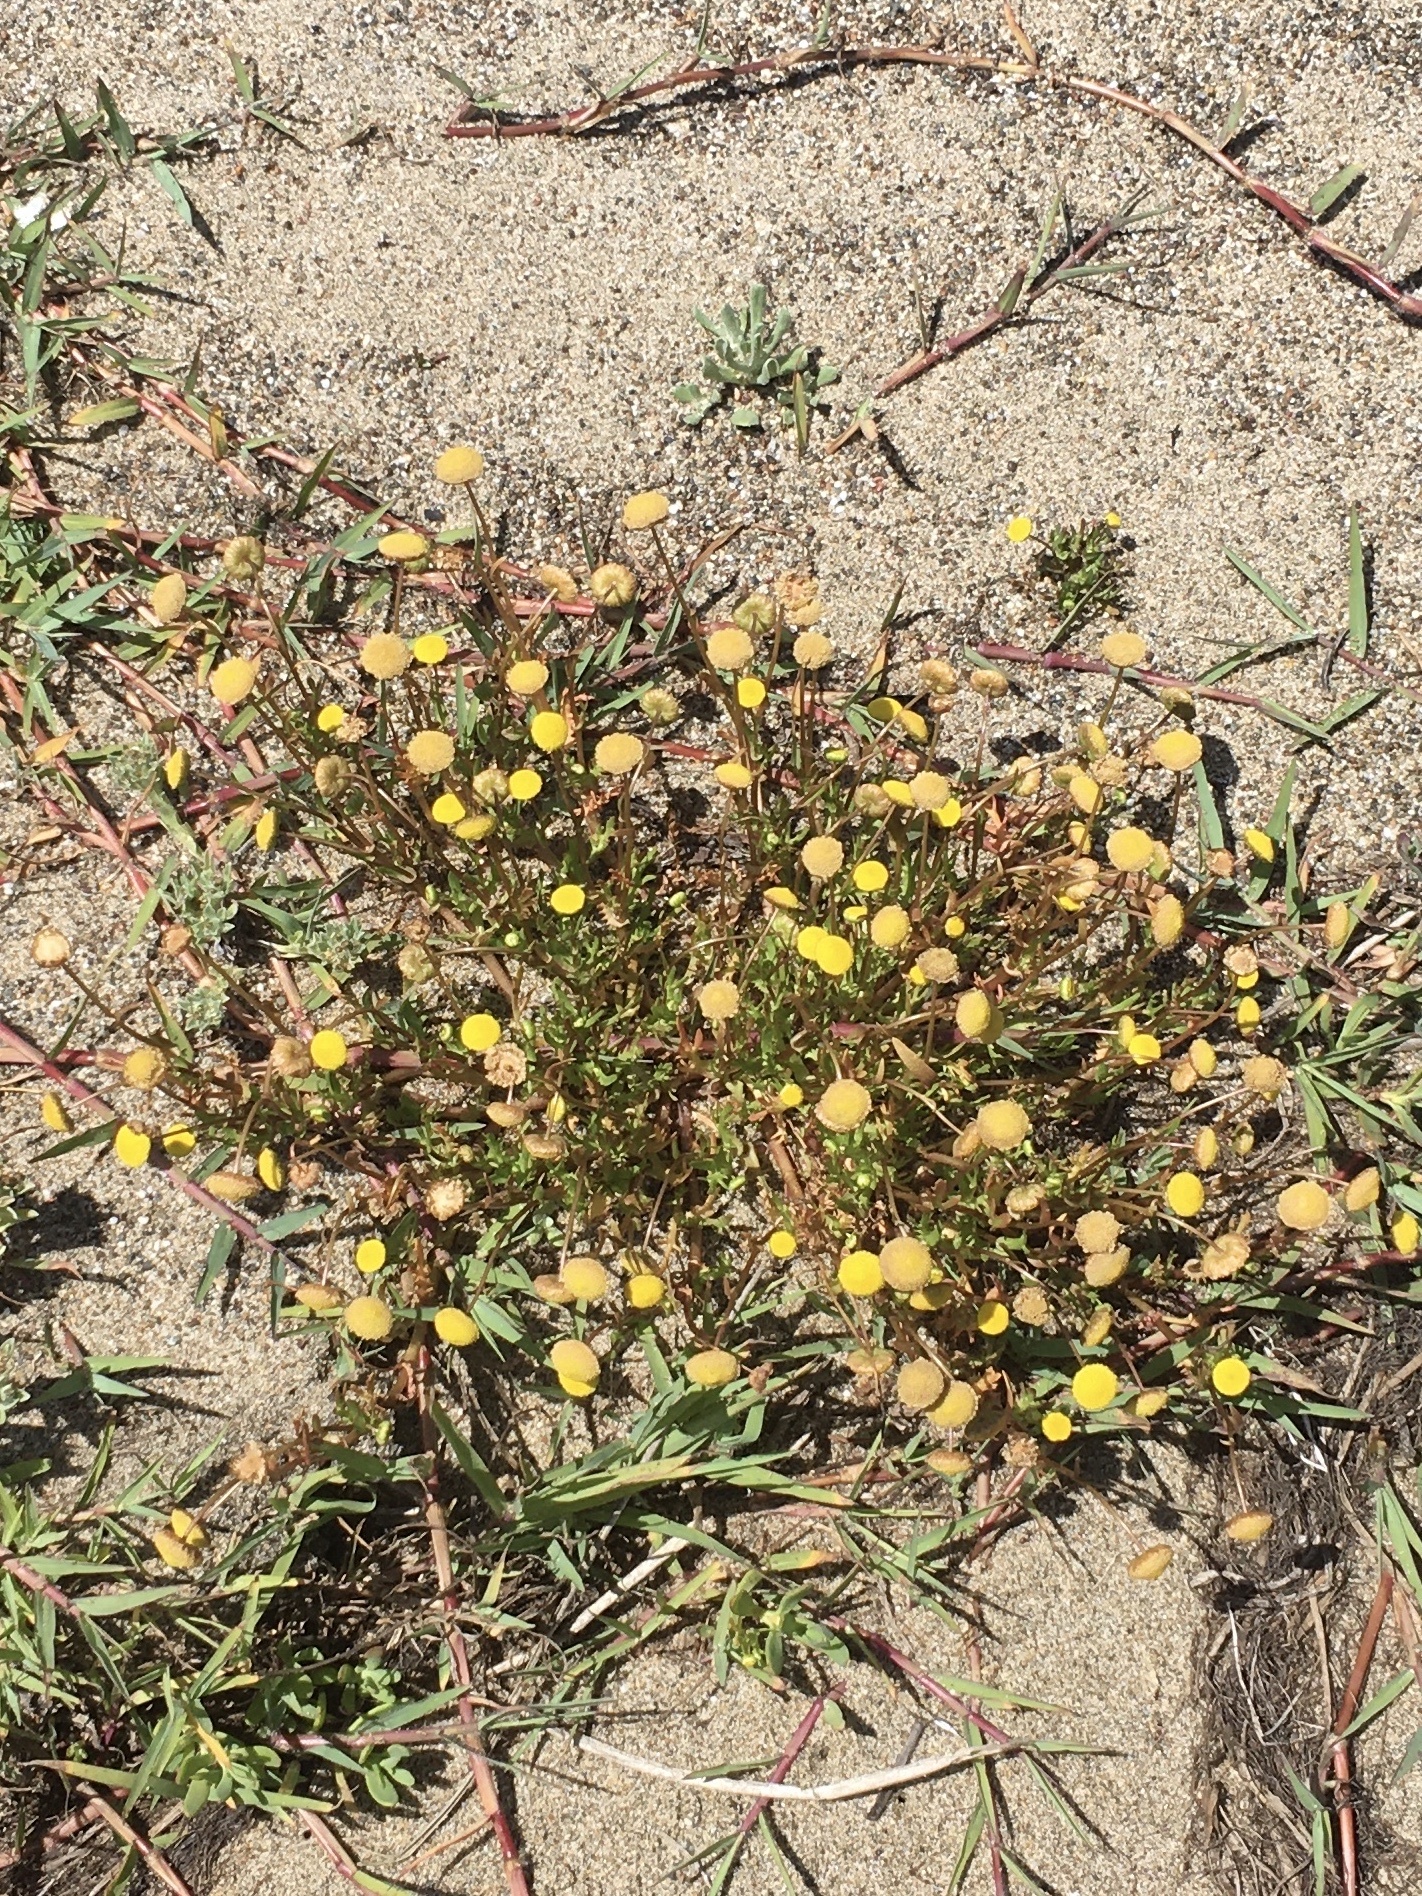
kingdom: Plantae
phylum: Tracheophyta
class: Magnoliopsida
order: Asterales
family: Asteraceae
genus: Cotula
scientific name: Cotula coronopifolia
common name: Buttonweed
